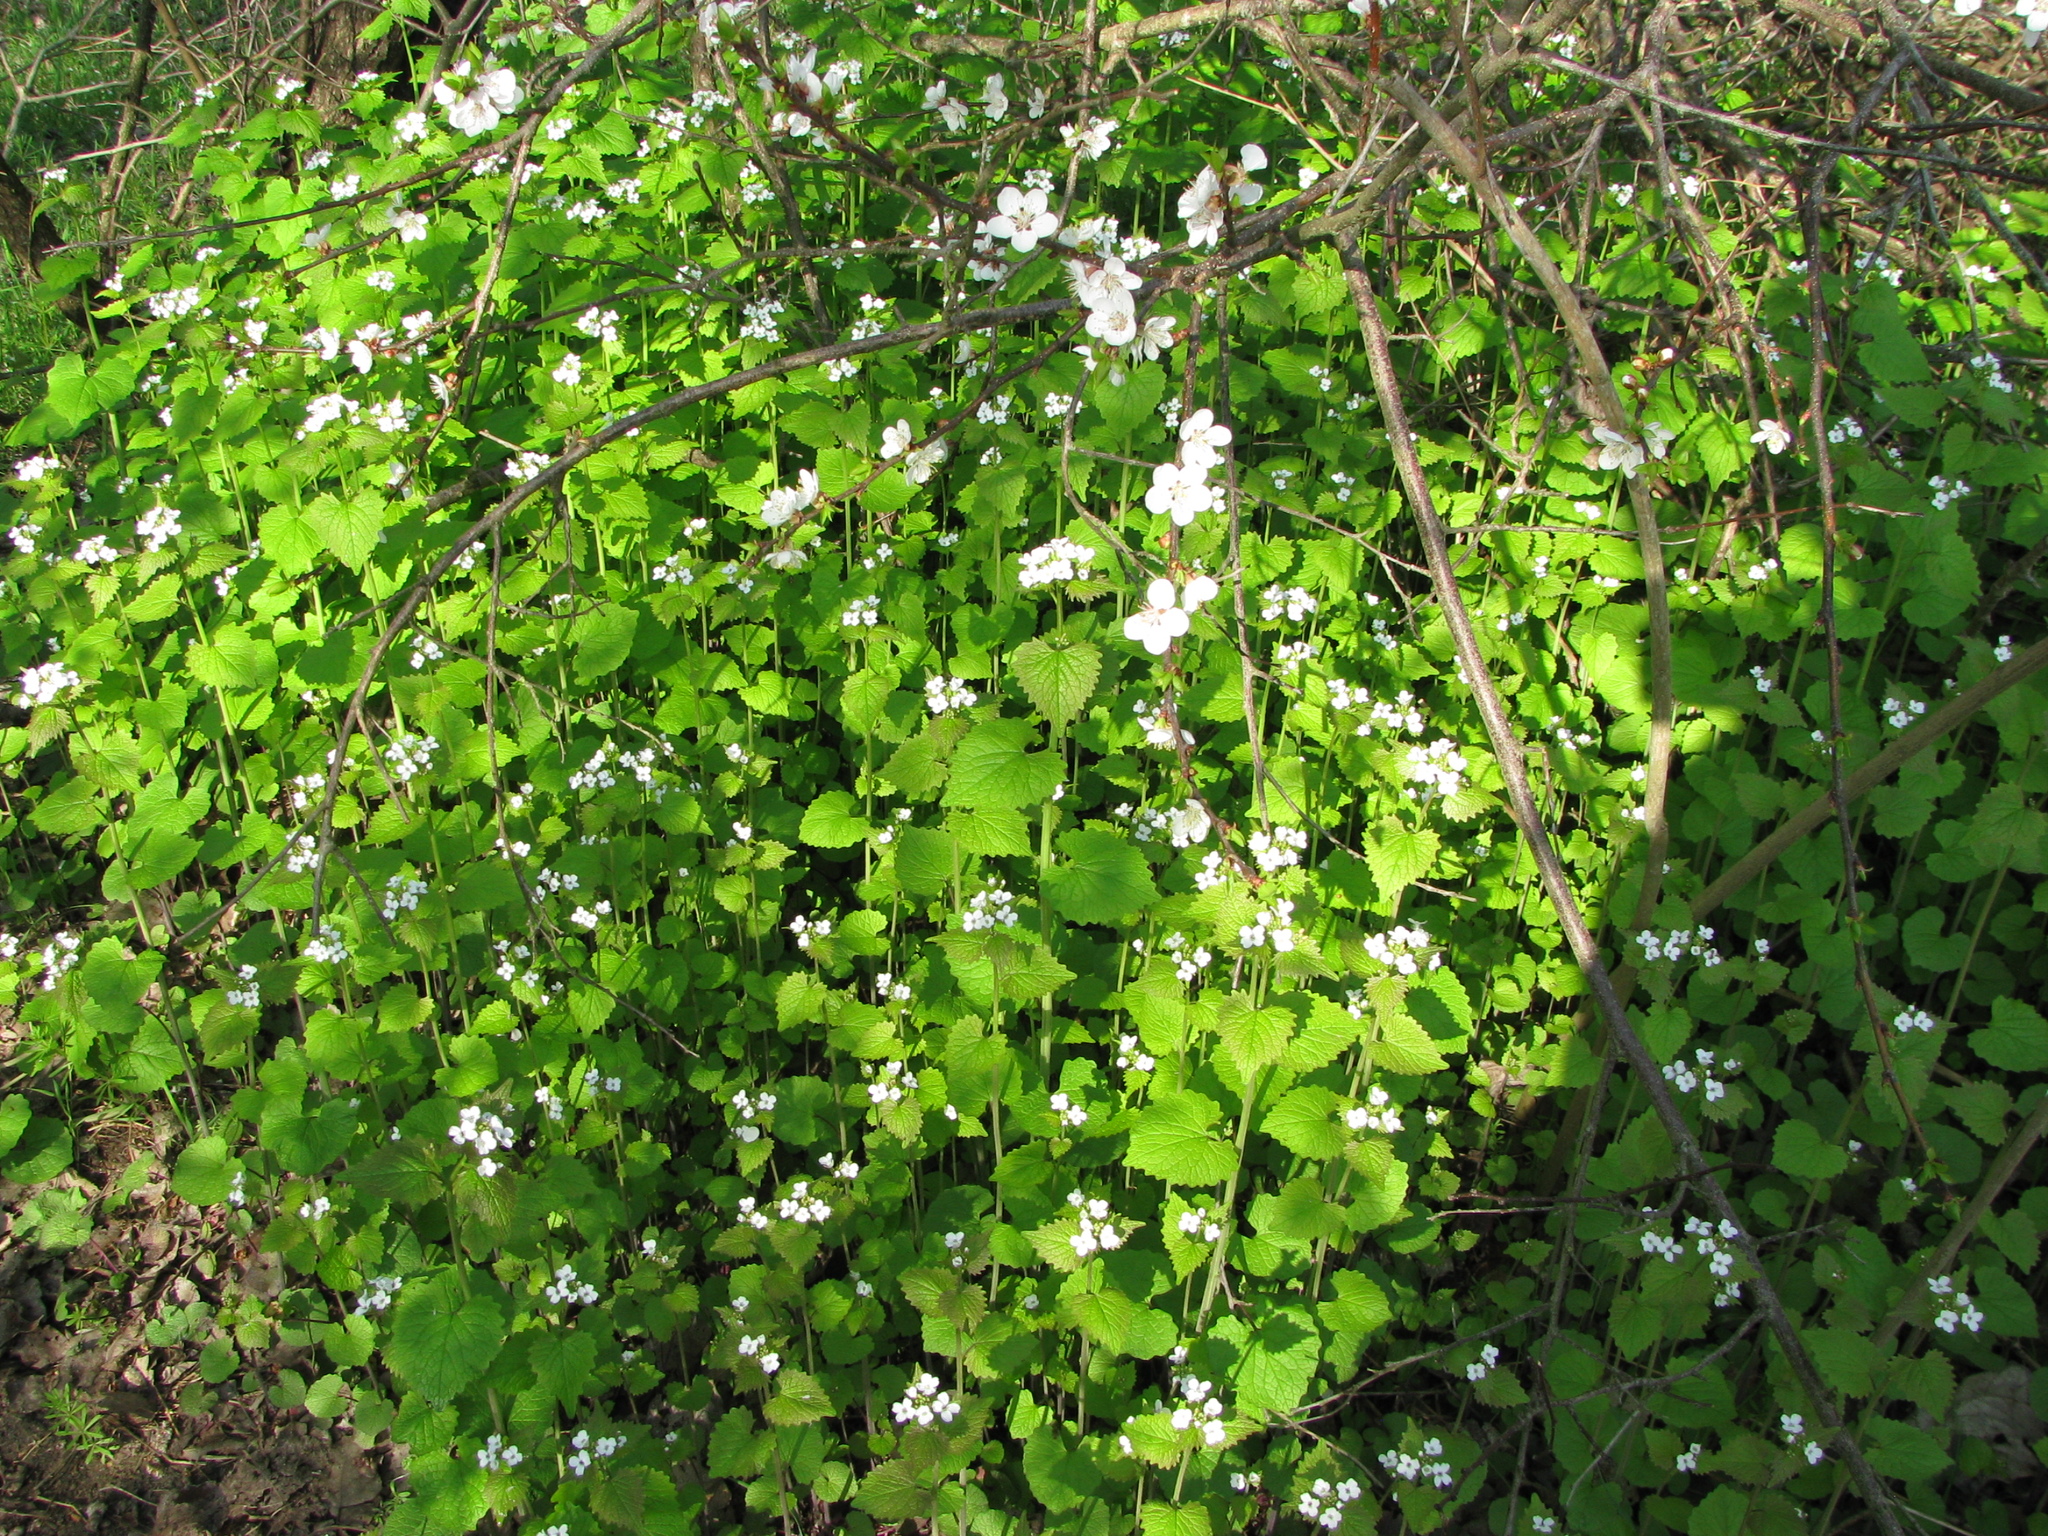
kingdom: Plantae
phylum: Tracheophyta
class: Magnoliopsida
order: Brassicales
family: Brassicaceae
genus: Alliaria
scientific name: Alliaria petiolata
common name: Garlic mustard
